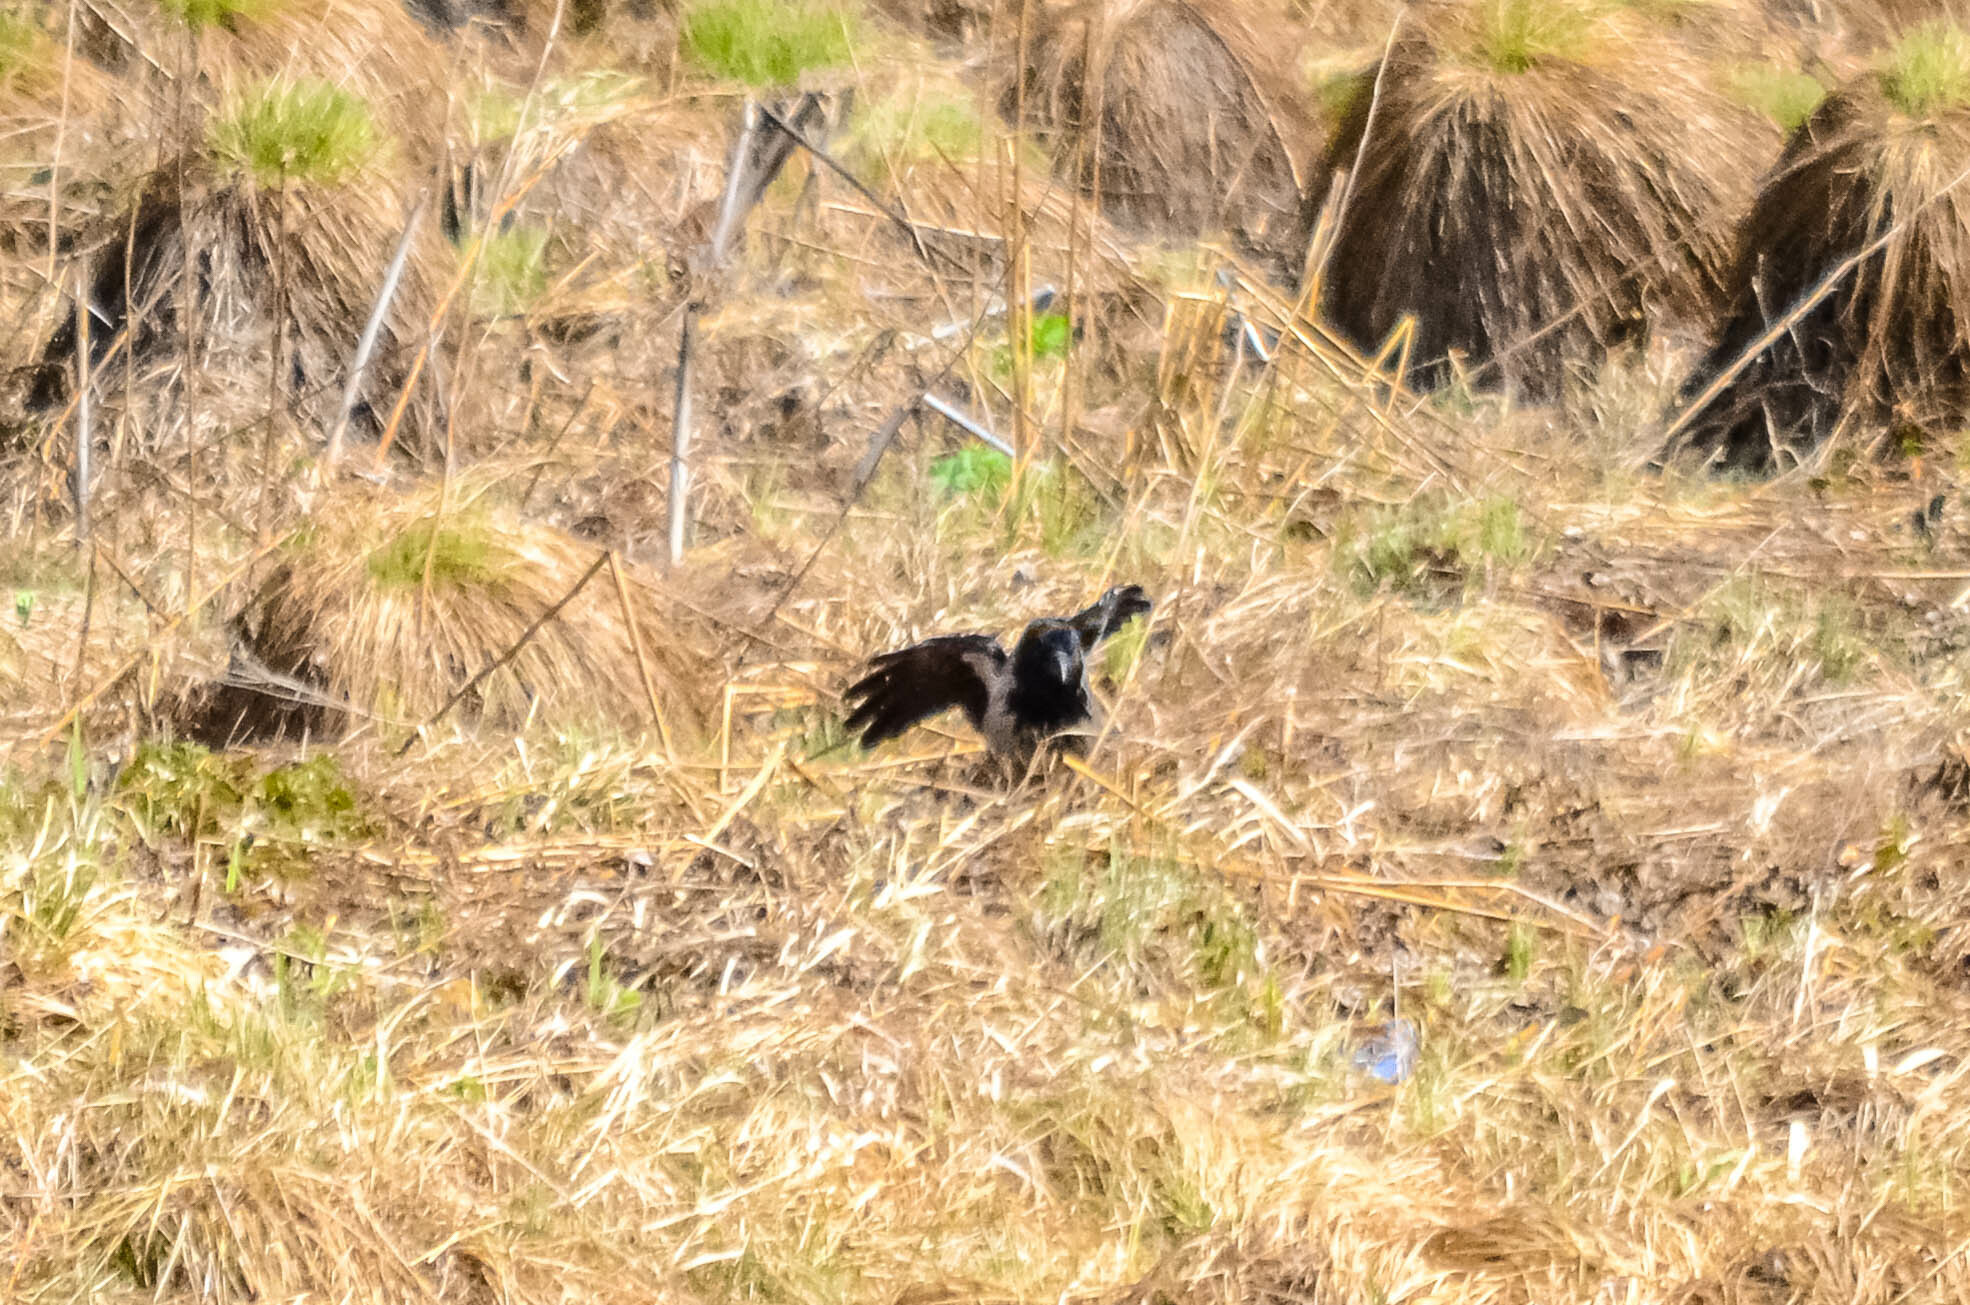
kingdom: Animalia
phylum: Chordata
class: Aves
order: Passeriformes
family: Corvidae
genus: Corvus
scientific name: Corvus cornix
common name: Hooded crow
